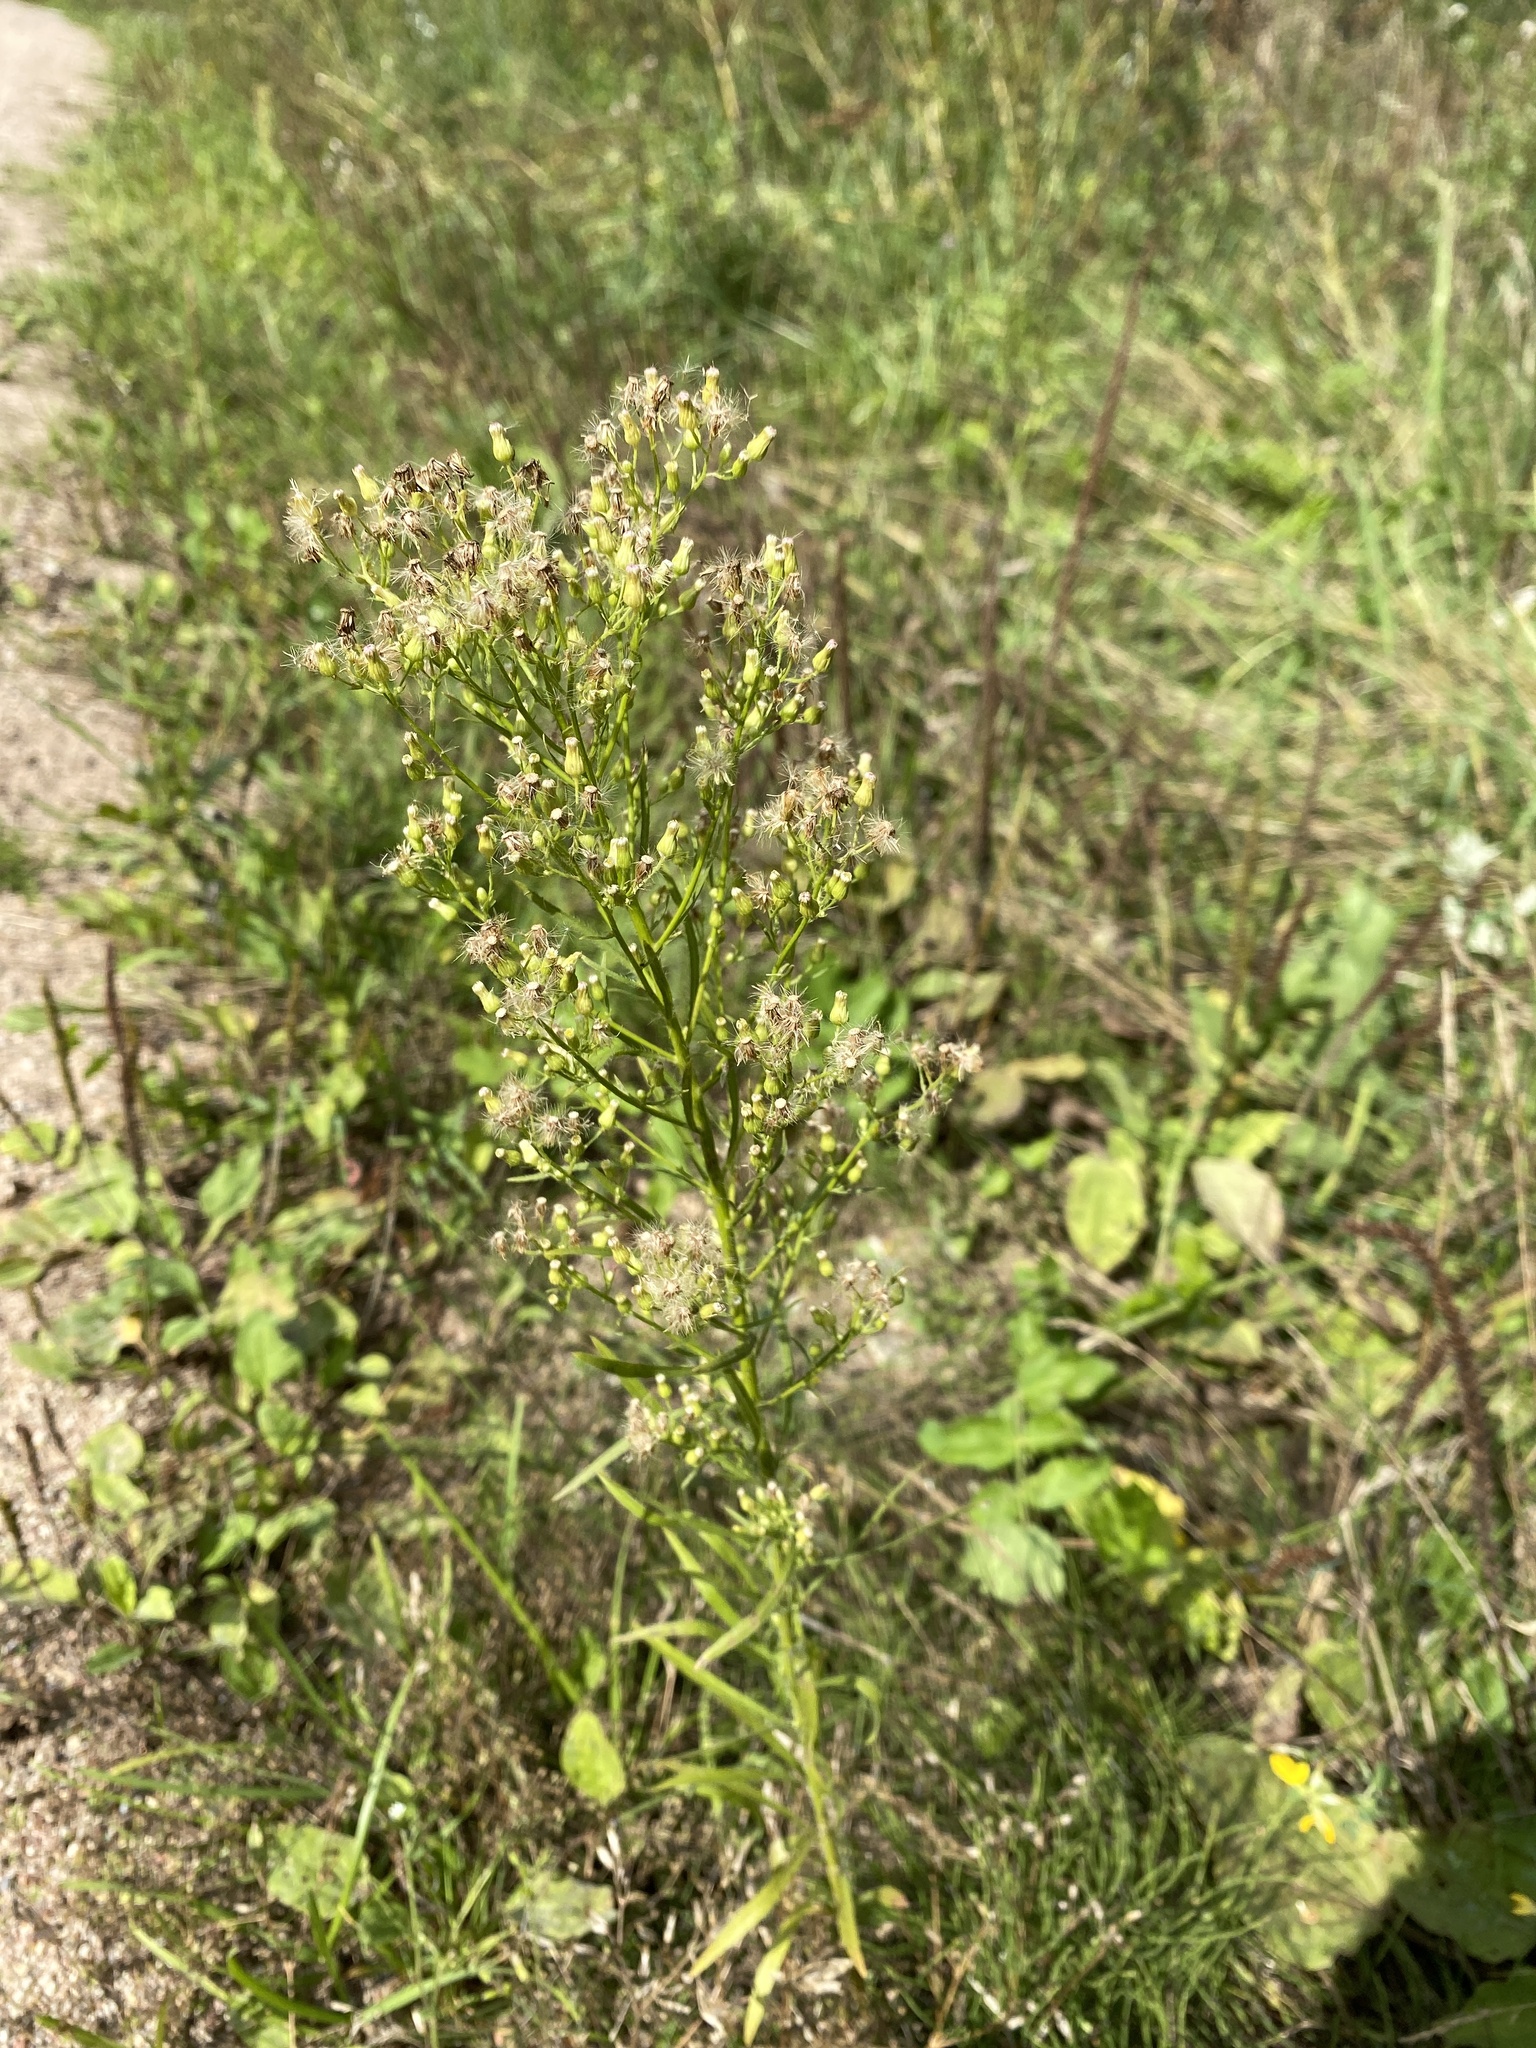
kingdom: Plantae
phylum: Tracheophyta
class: Magnoliopsida
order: Asterales
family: Asteraceae
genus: Erigeron
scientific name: Erigeron canadensis
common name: Canadian fleabane
